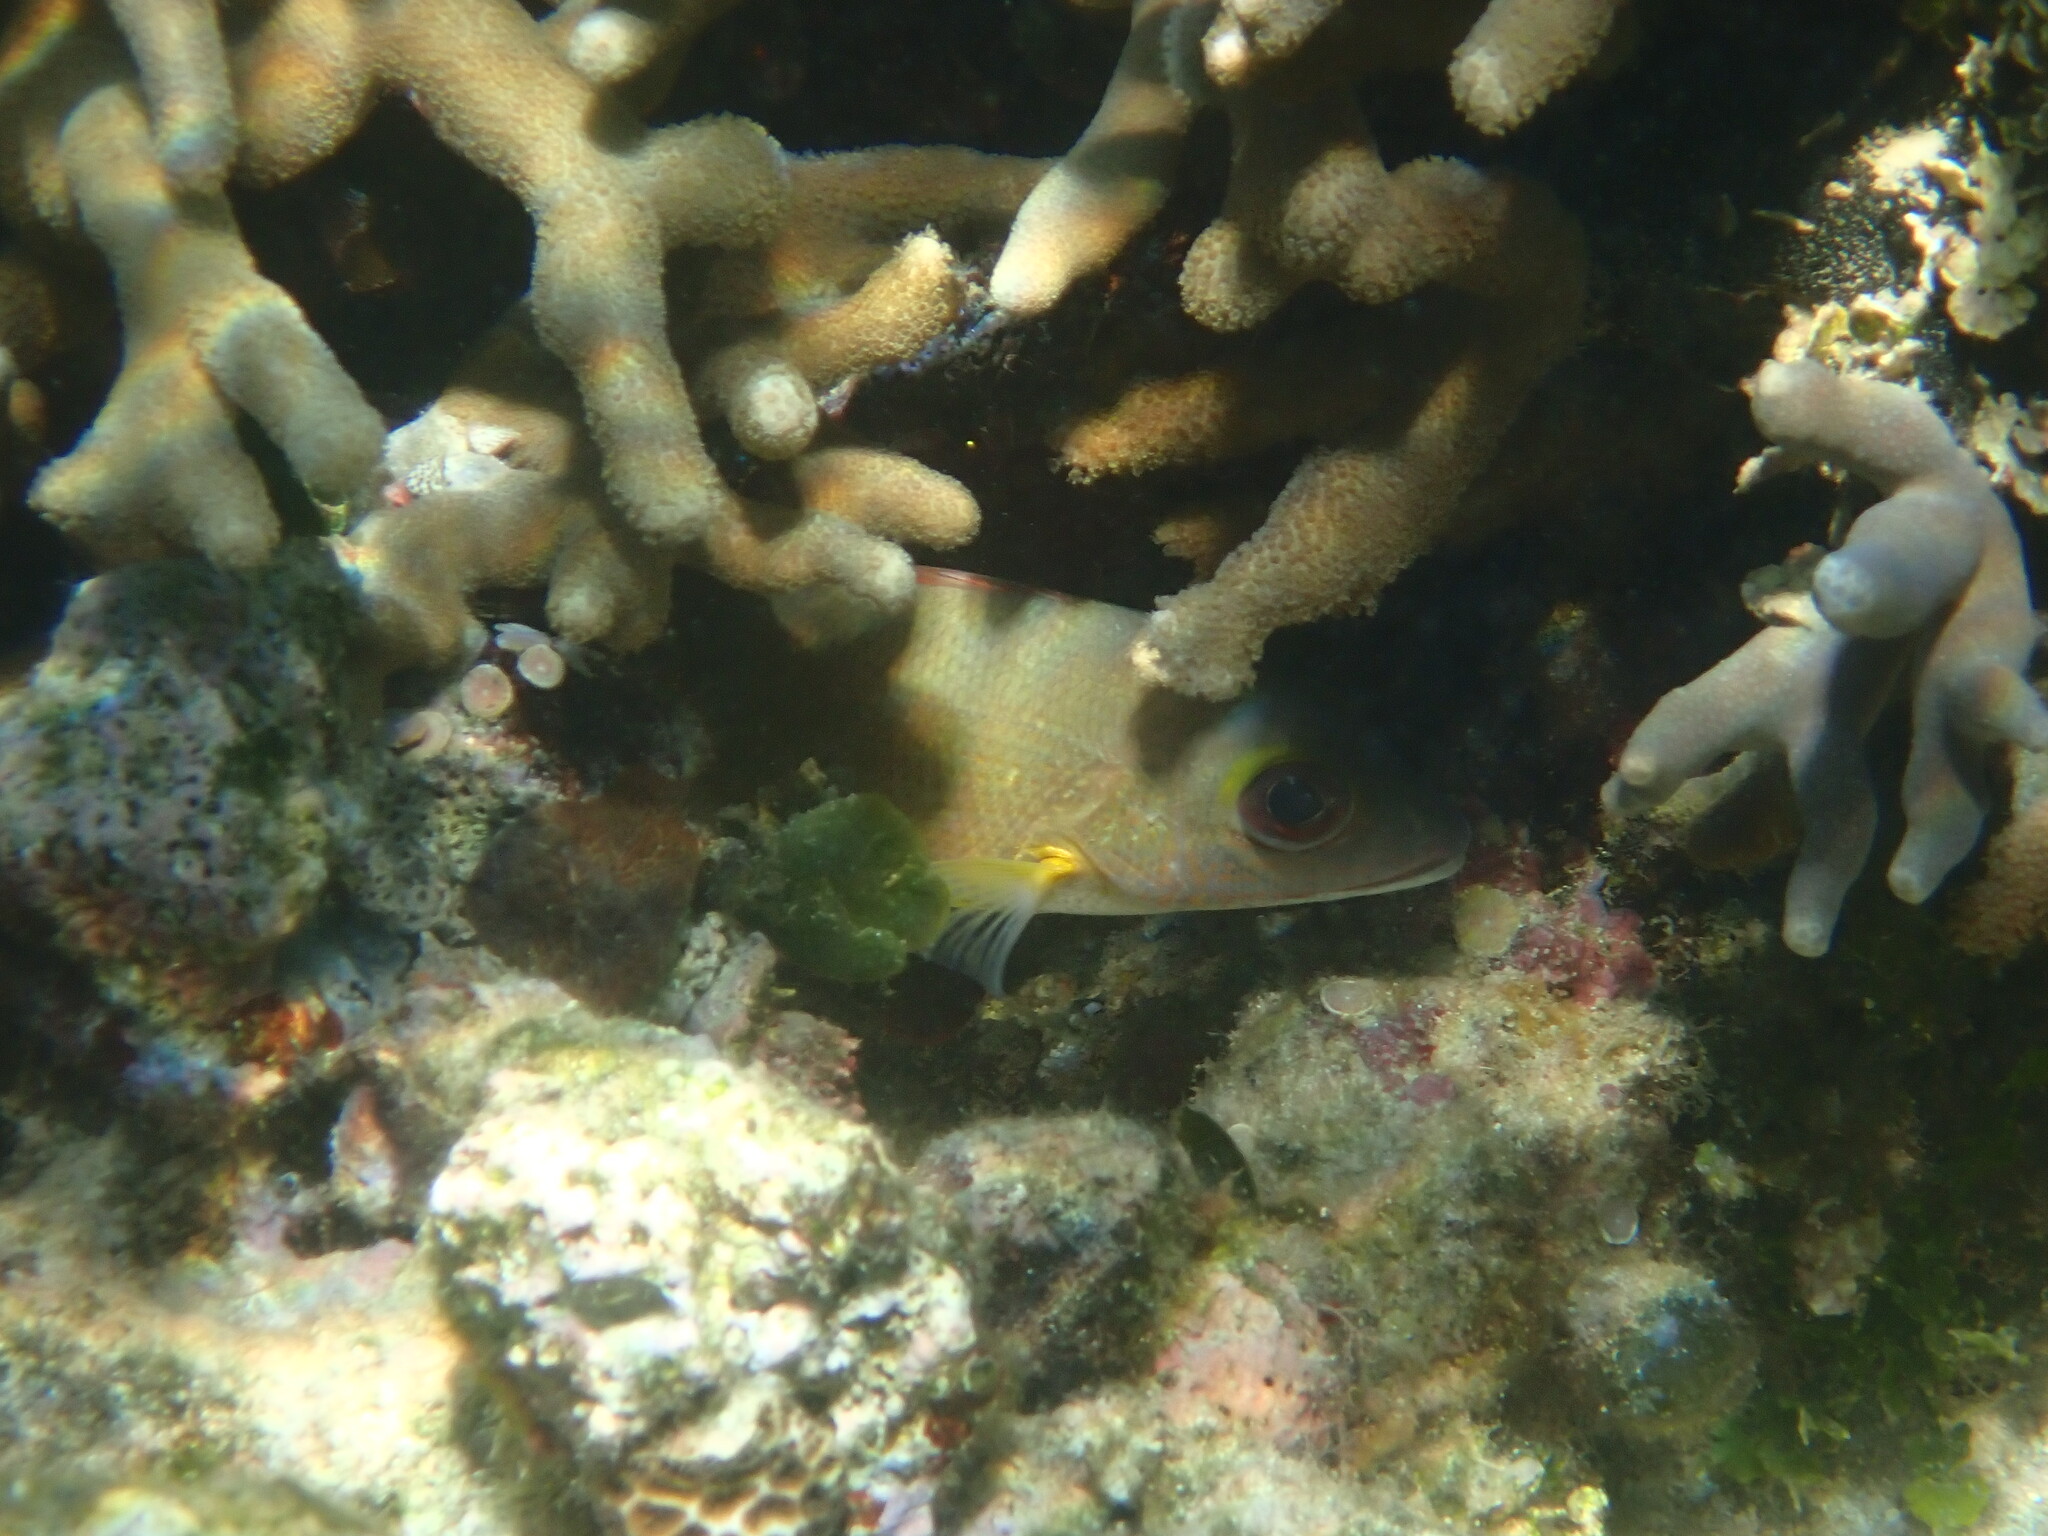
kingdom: Animalia
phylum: Chordata
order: Perciformes
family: Lutjanidae
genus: Lutjanus
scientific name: Lutjanus fulvus
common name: Blacktail snapper
